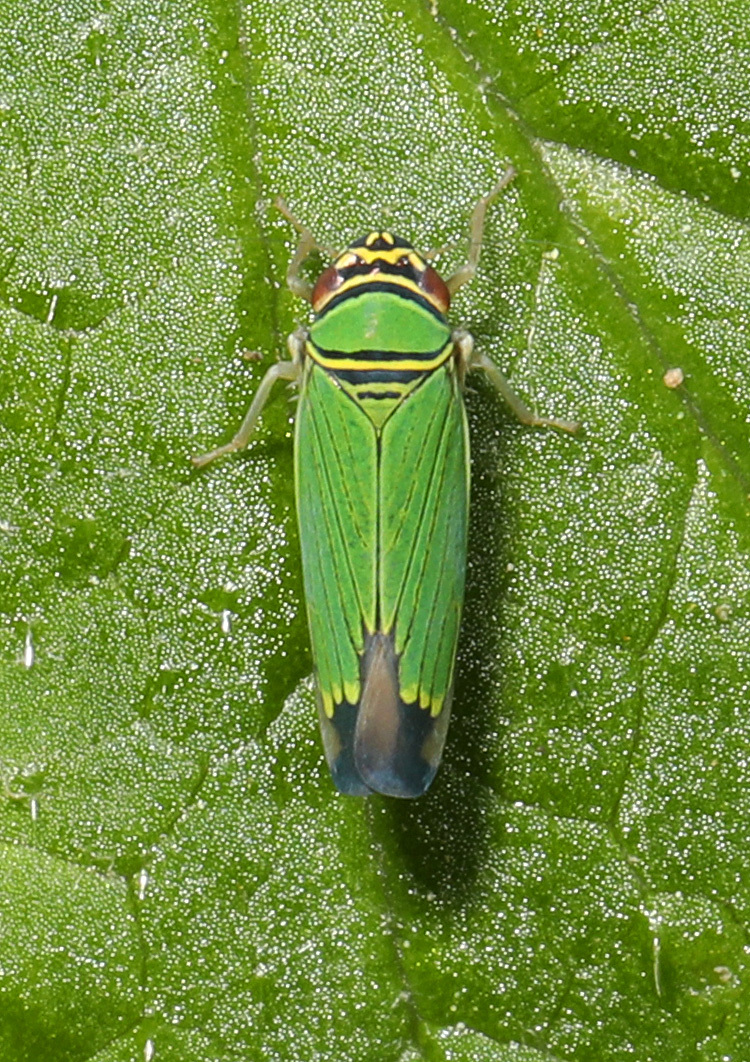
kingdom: Animalia
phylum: Arthropoda
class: Insecta
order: Hemiptera
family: Cicadellidae
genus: Tylozygus
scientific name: Tylozygus geometricus
